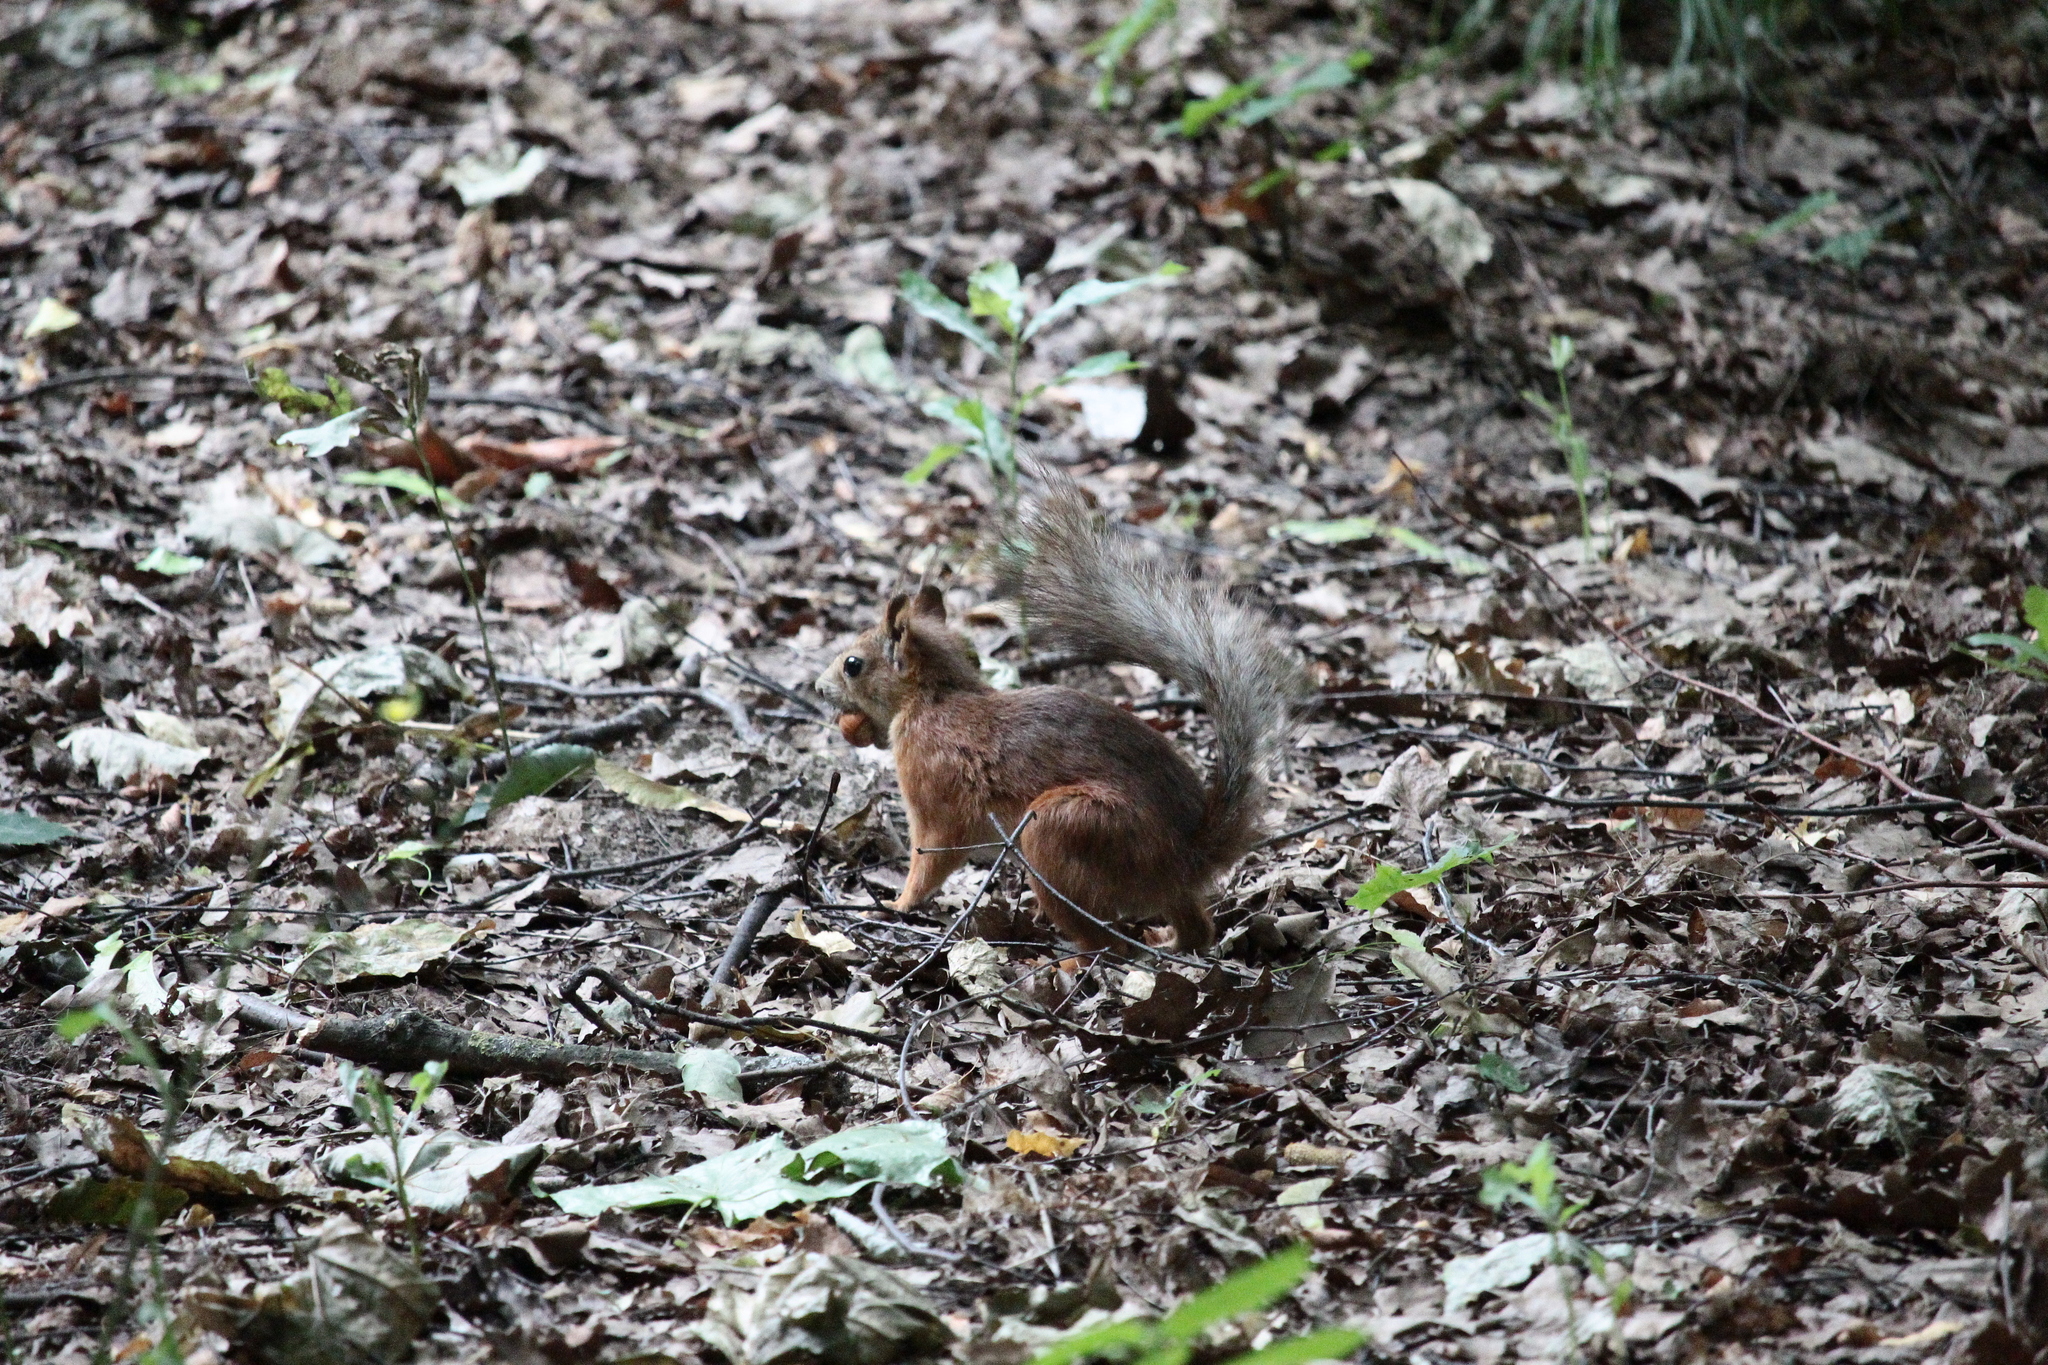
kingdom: Animalia
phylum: Chordata
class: Mammalia
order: Rodentia
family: Sciuridae
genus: Sciurus
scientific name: Sciurus vulgaris
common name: Eurasian red squirrel
